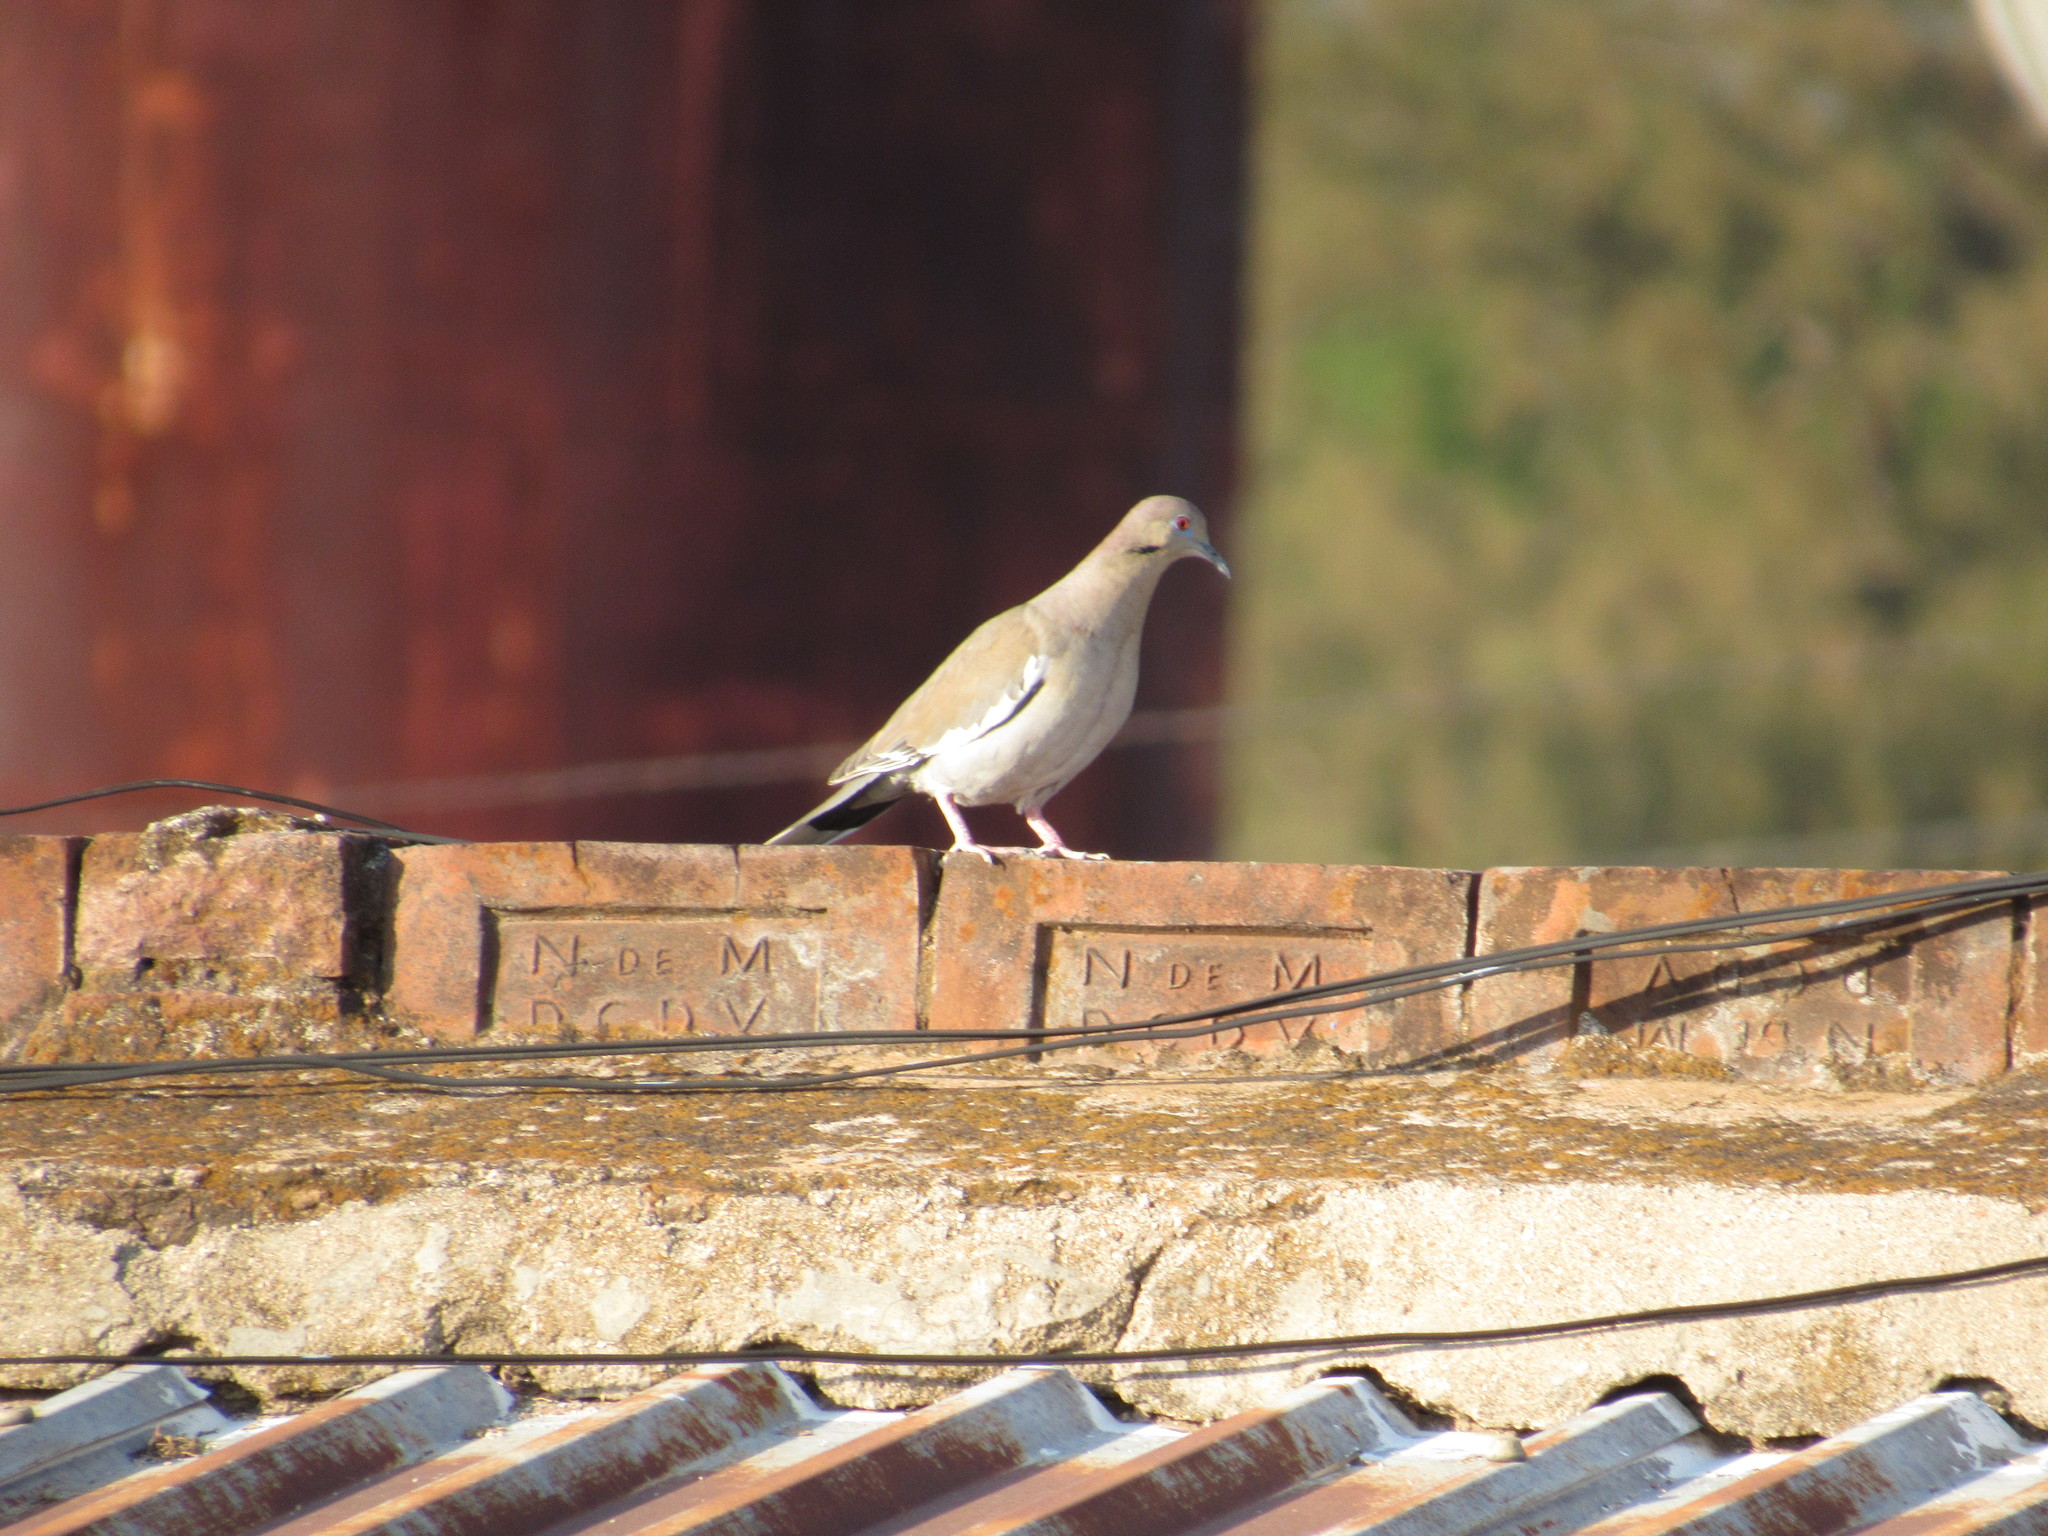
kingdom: Animalia
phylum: Chordata
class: Aves
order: Columbiformes
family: Columbidae
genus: Zenaida
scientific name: Zenaida asiatica
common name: White-winged dove
